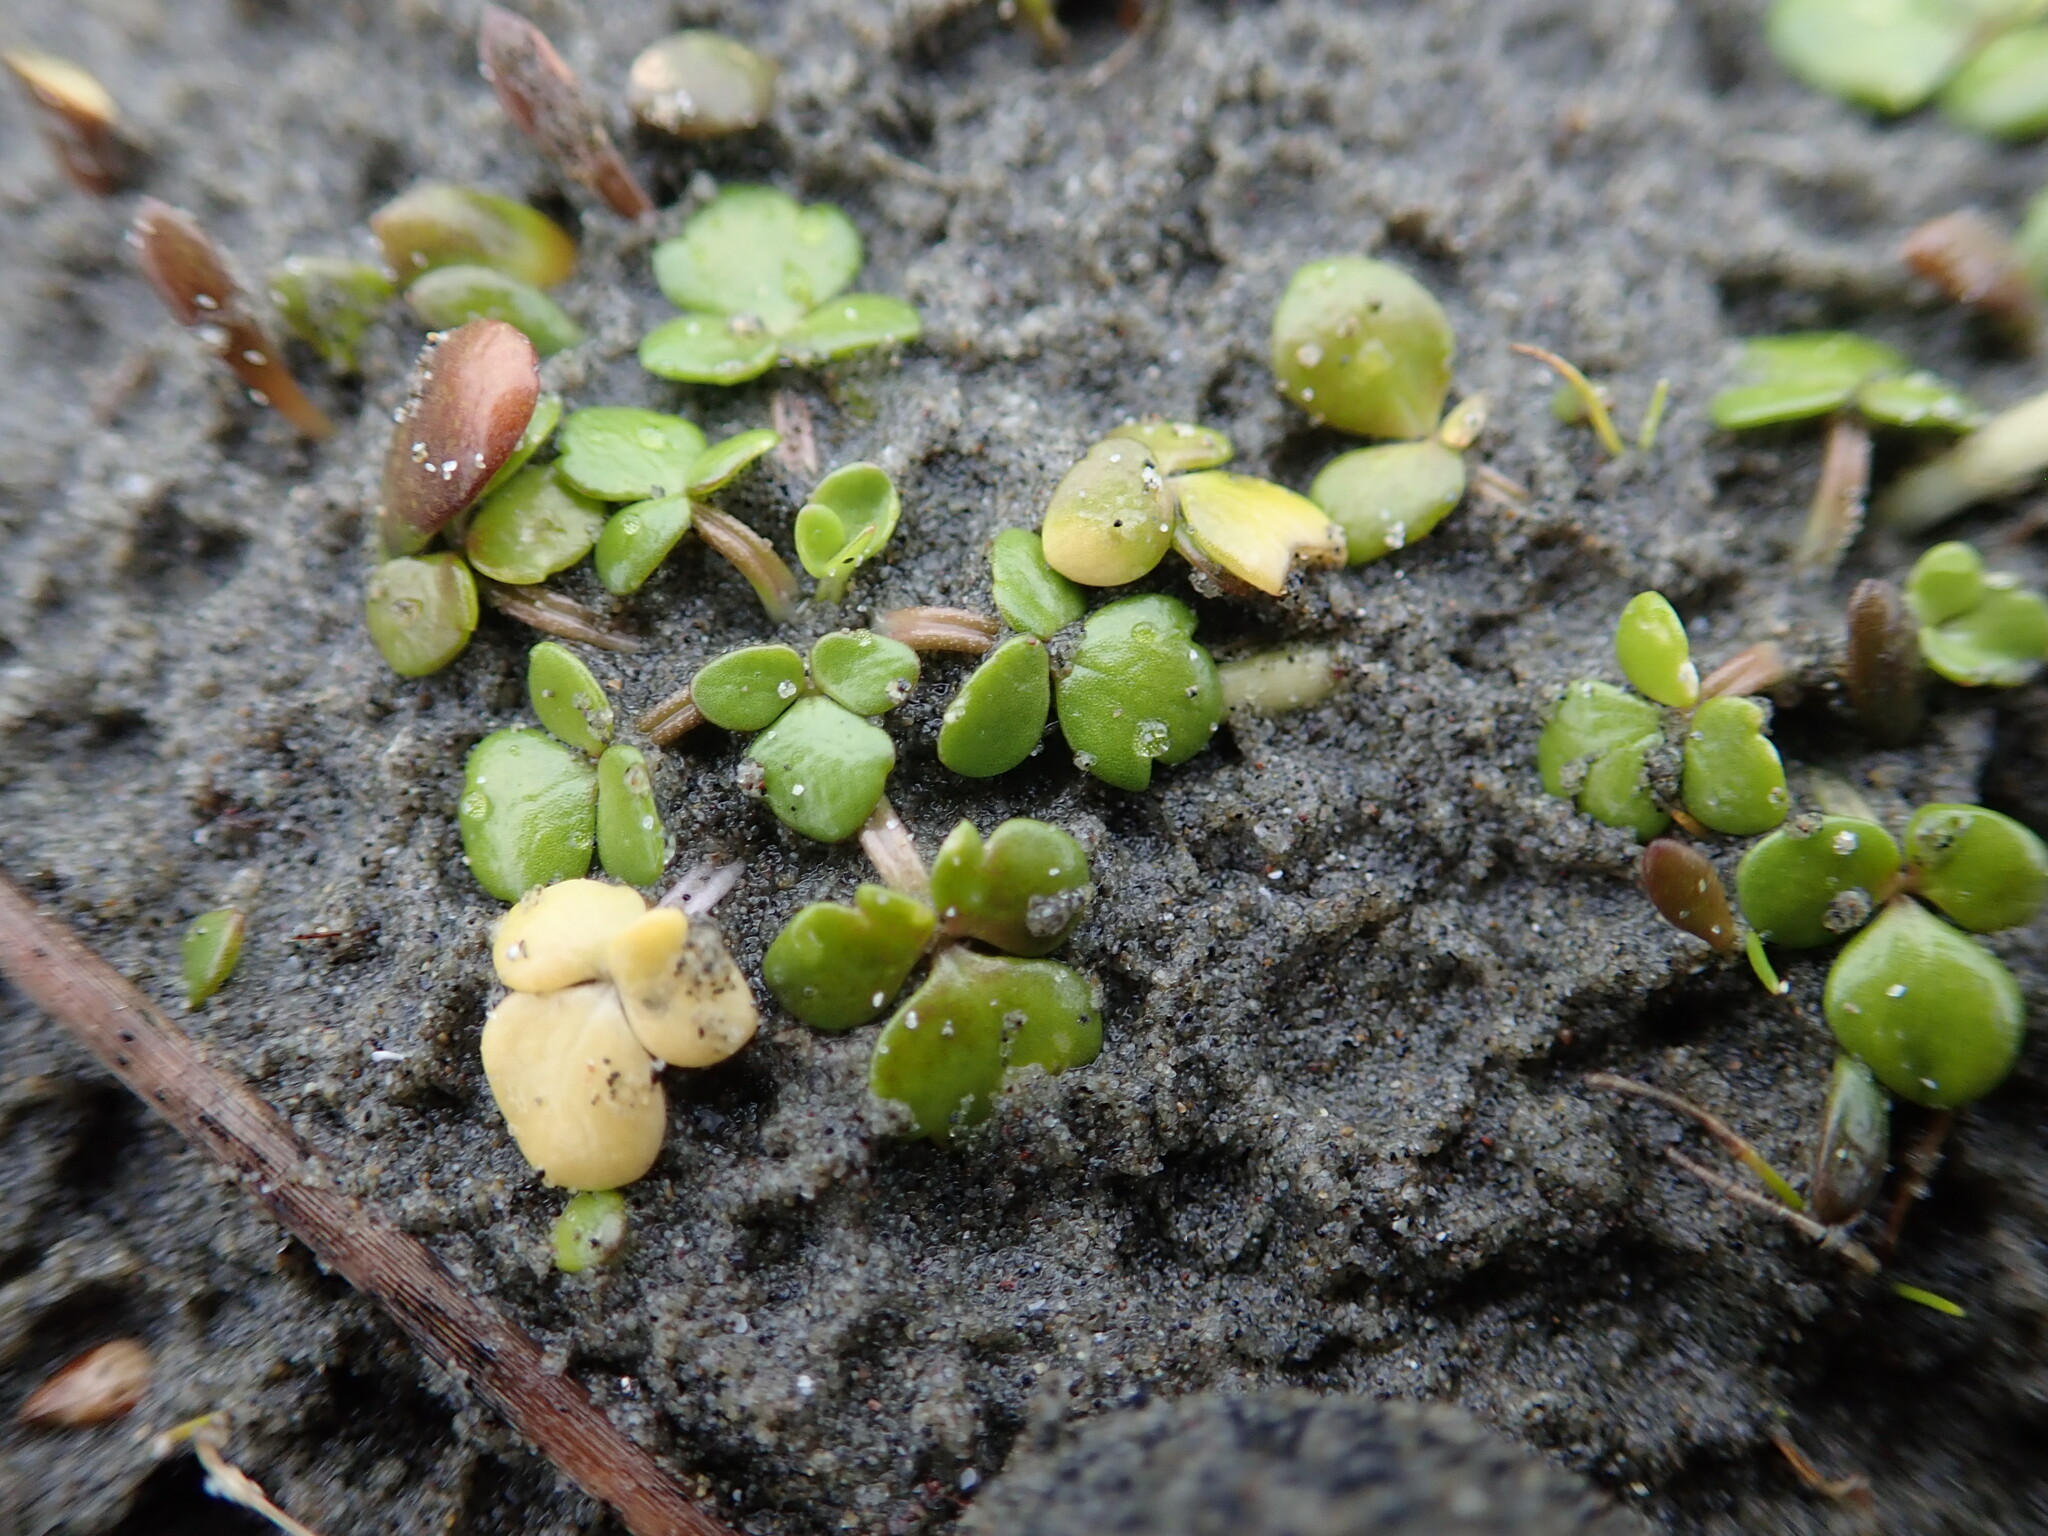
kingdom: Plantae
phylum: Tracheophyta
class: Magnoliopsida
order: Ranunculales
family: Ranunculaceae
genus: Ranunculus
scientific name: Ranunculus acaulis
